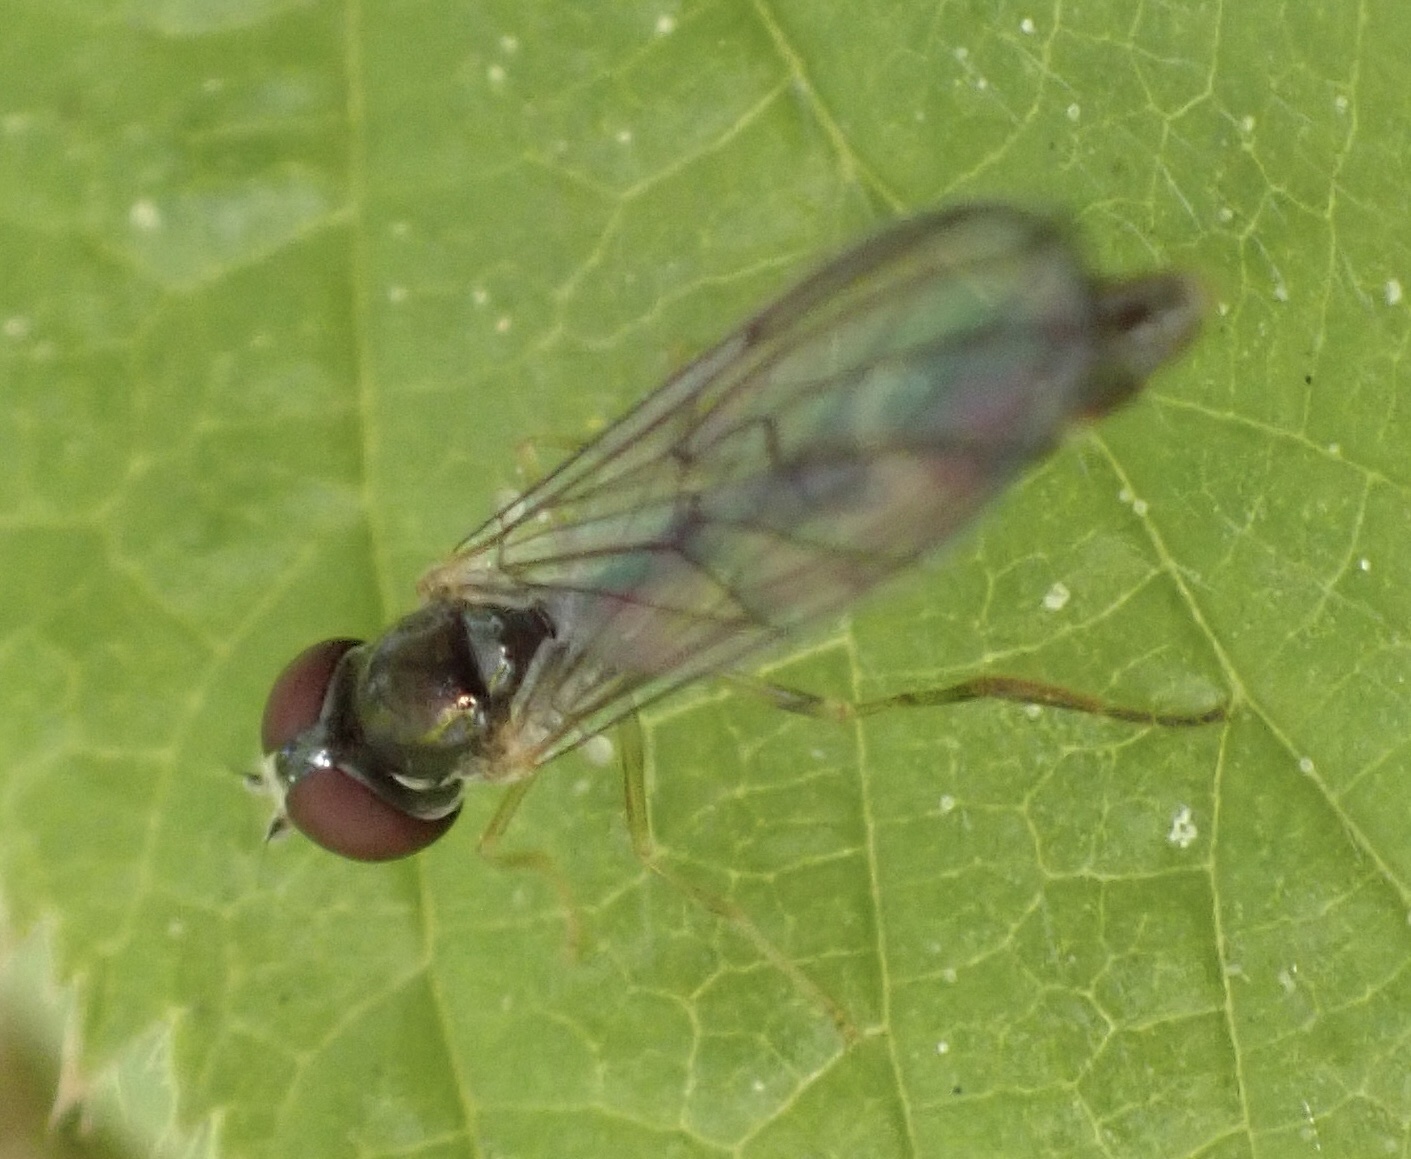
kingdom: Animalia
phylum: Arthropoda
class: Insecta
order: Diptera
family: Syrphidae
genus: Baccha
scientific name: Baccha elongata
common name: Common dainty
